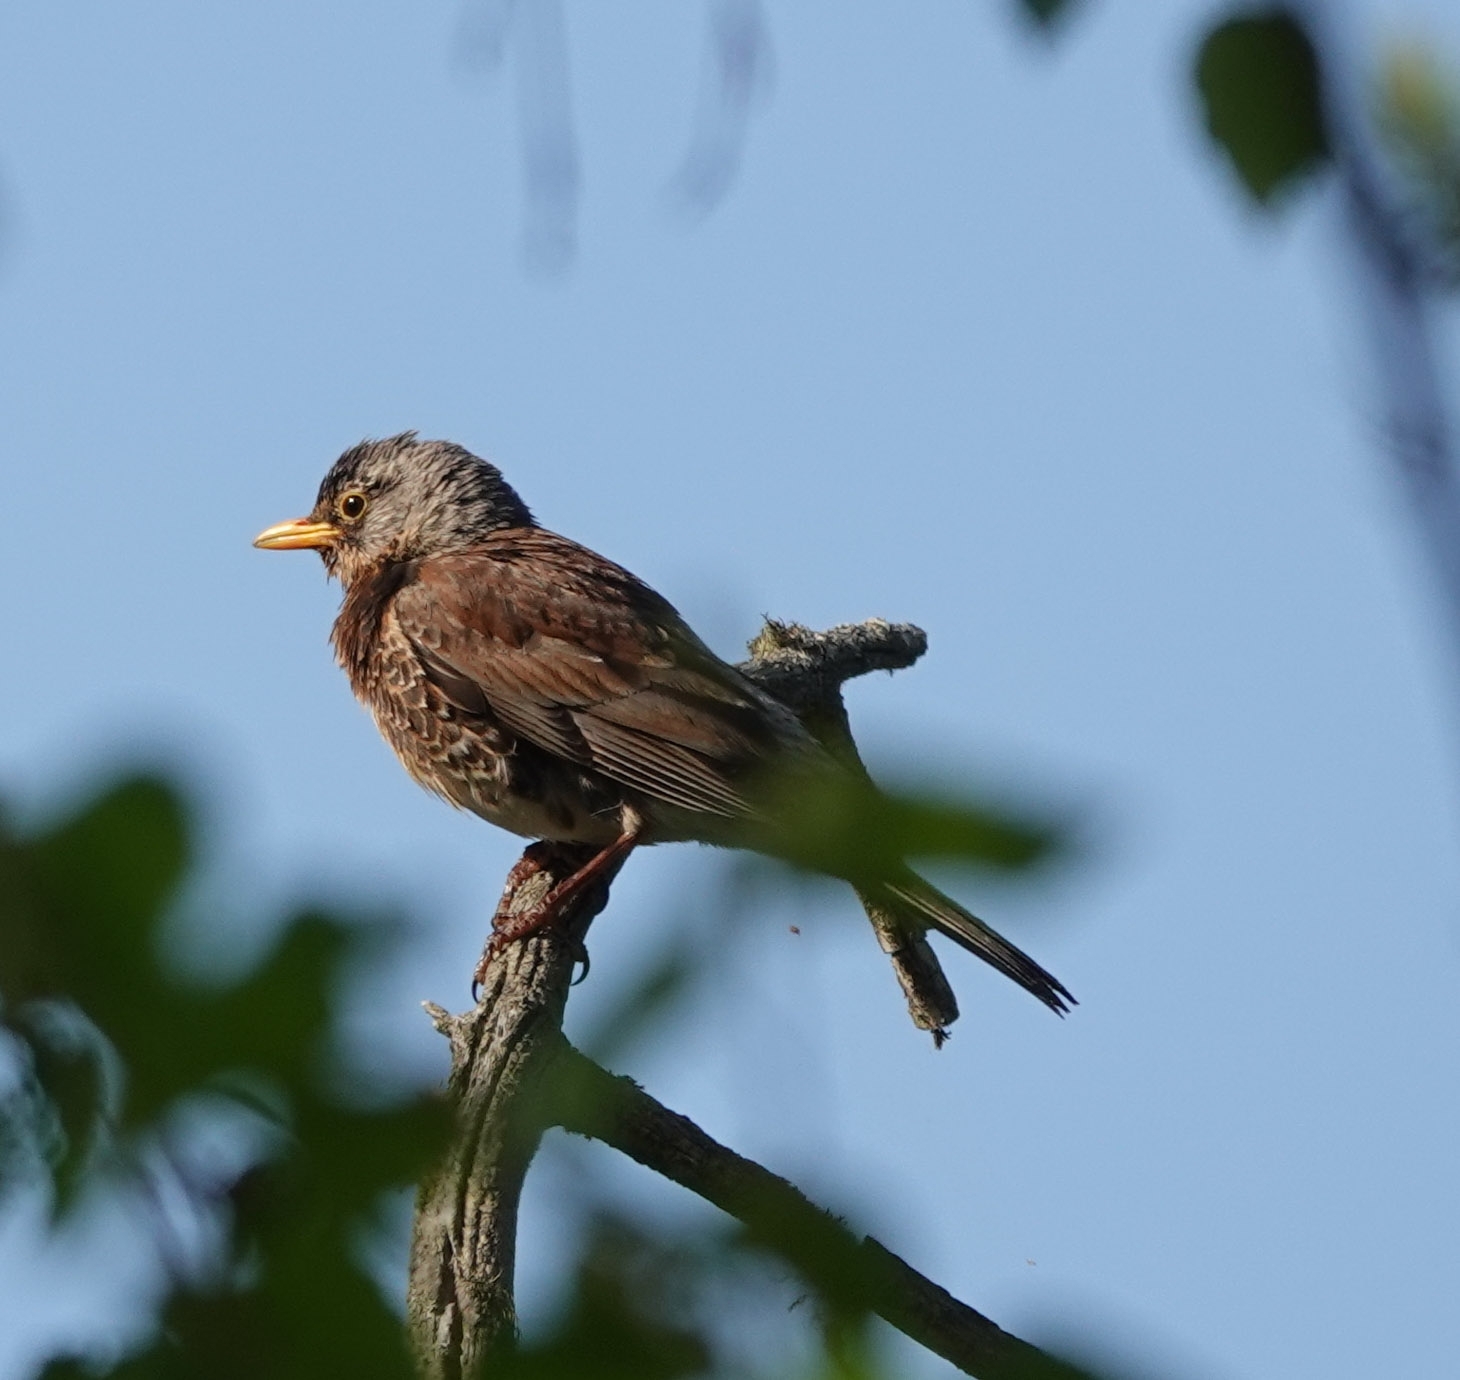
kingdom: Animalia
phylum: Chordata
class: Aves
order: Passeriformes
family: Turdidae
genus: Turdus
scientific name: Turdus pilaris
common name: Fieldfare
